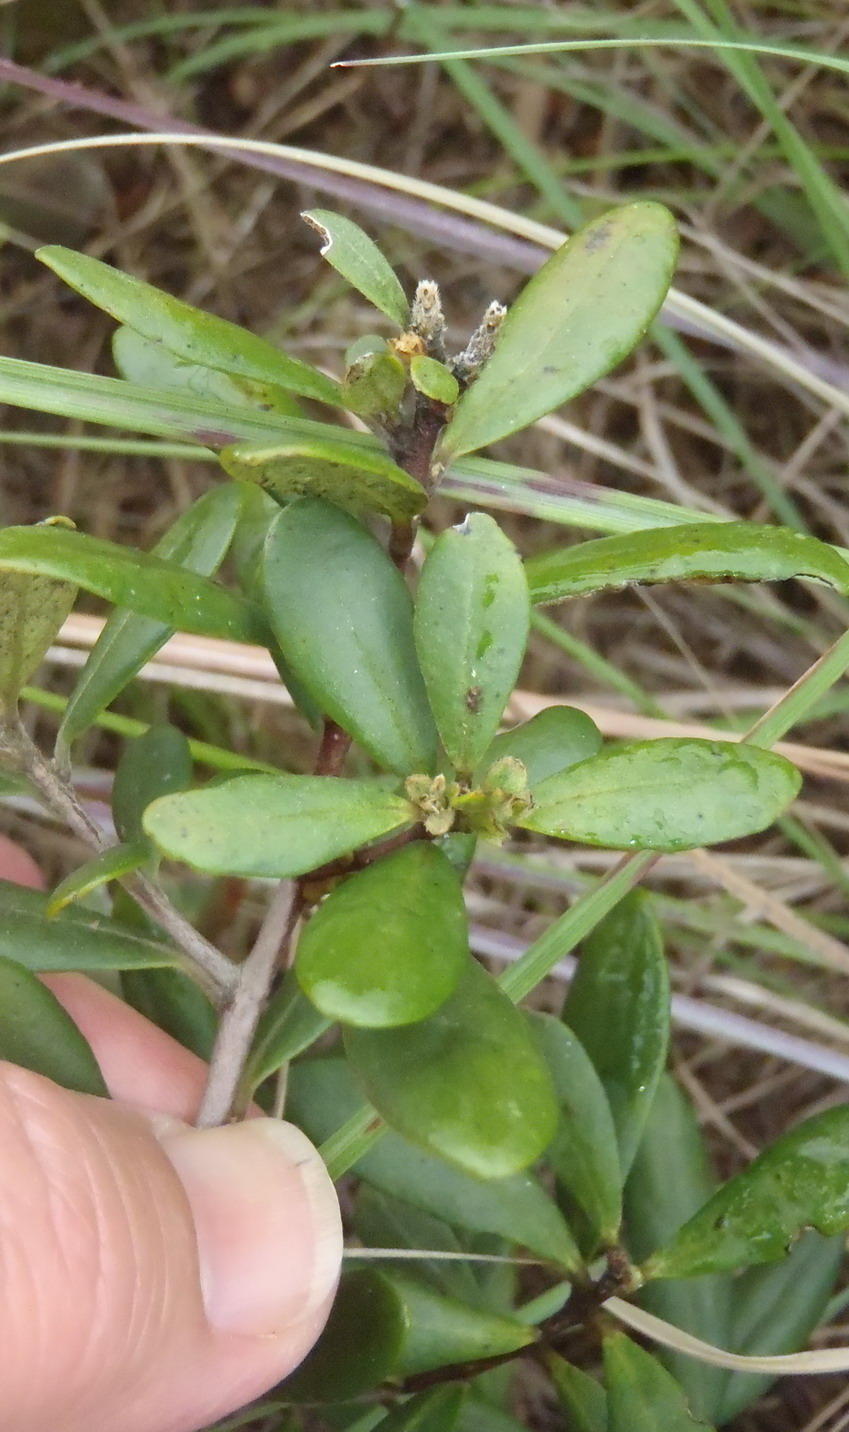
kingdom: Plantae
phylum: Tracheophyta
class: Magnoliopsida
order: Ericales
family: Ebenaceae
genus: Diospyros
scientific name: Diospyros dichrophylla
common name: Common star-apple
